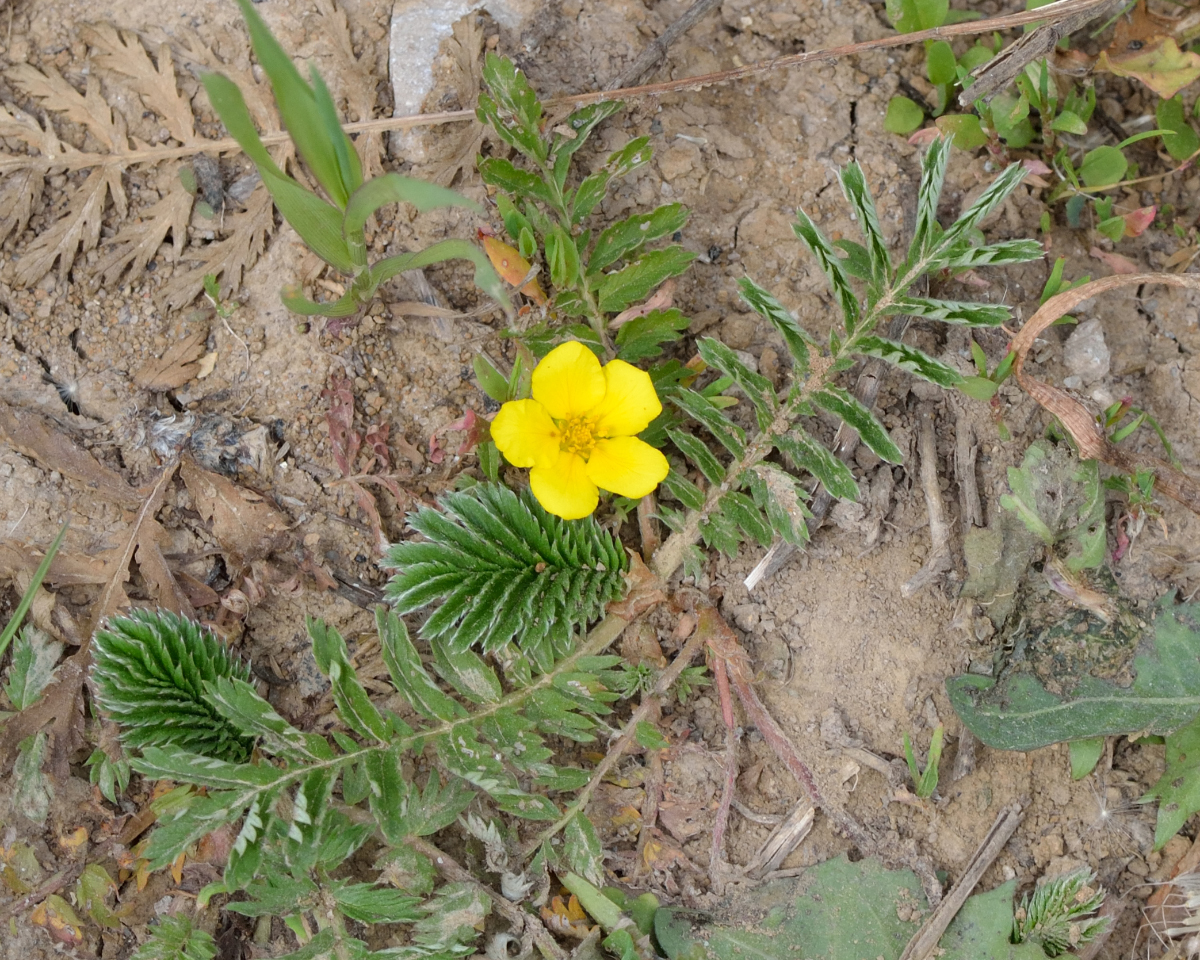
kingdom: Plantae
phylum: Tracheophyta
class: Magnoliopsida
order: Rosales
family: Rosaceae
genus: Argentina
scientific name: Argentina anserina
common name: Common silverweed
